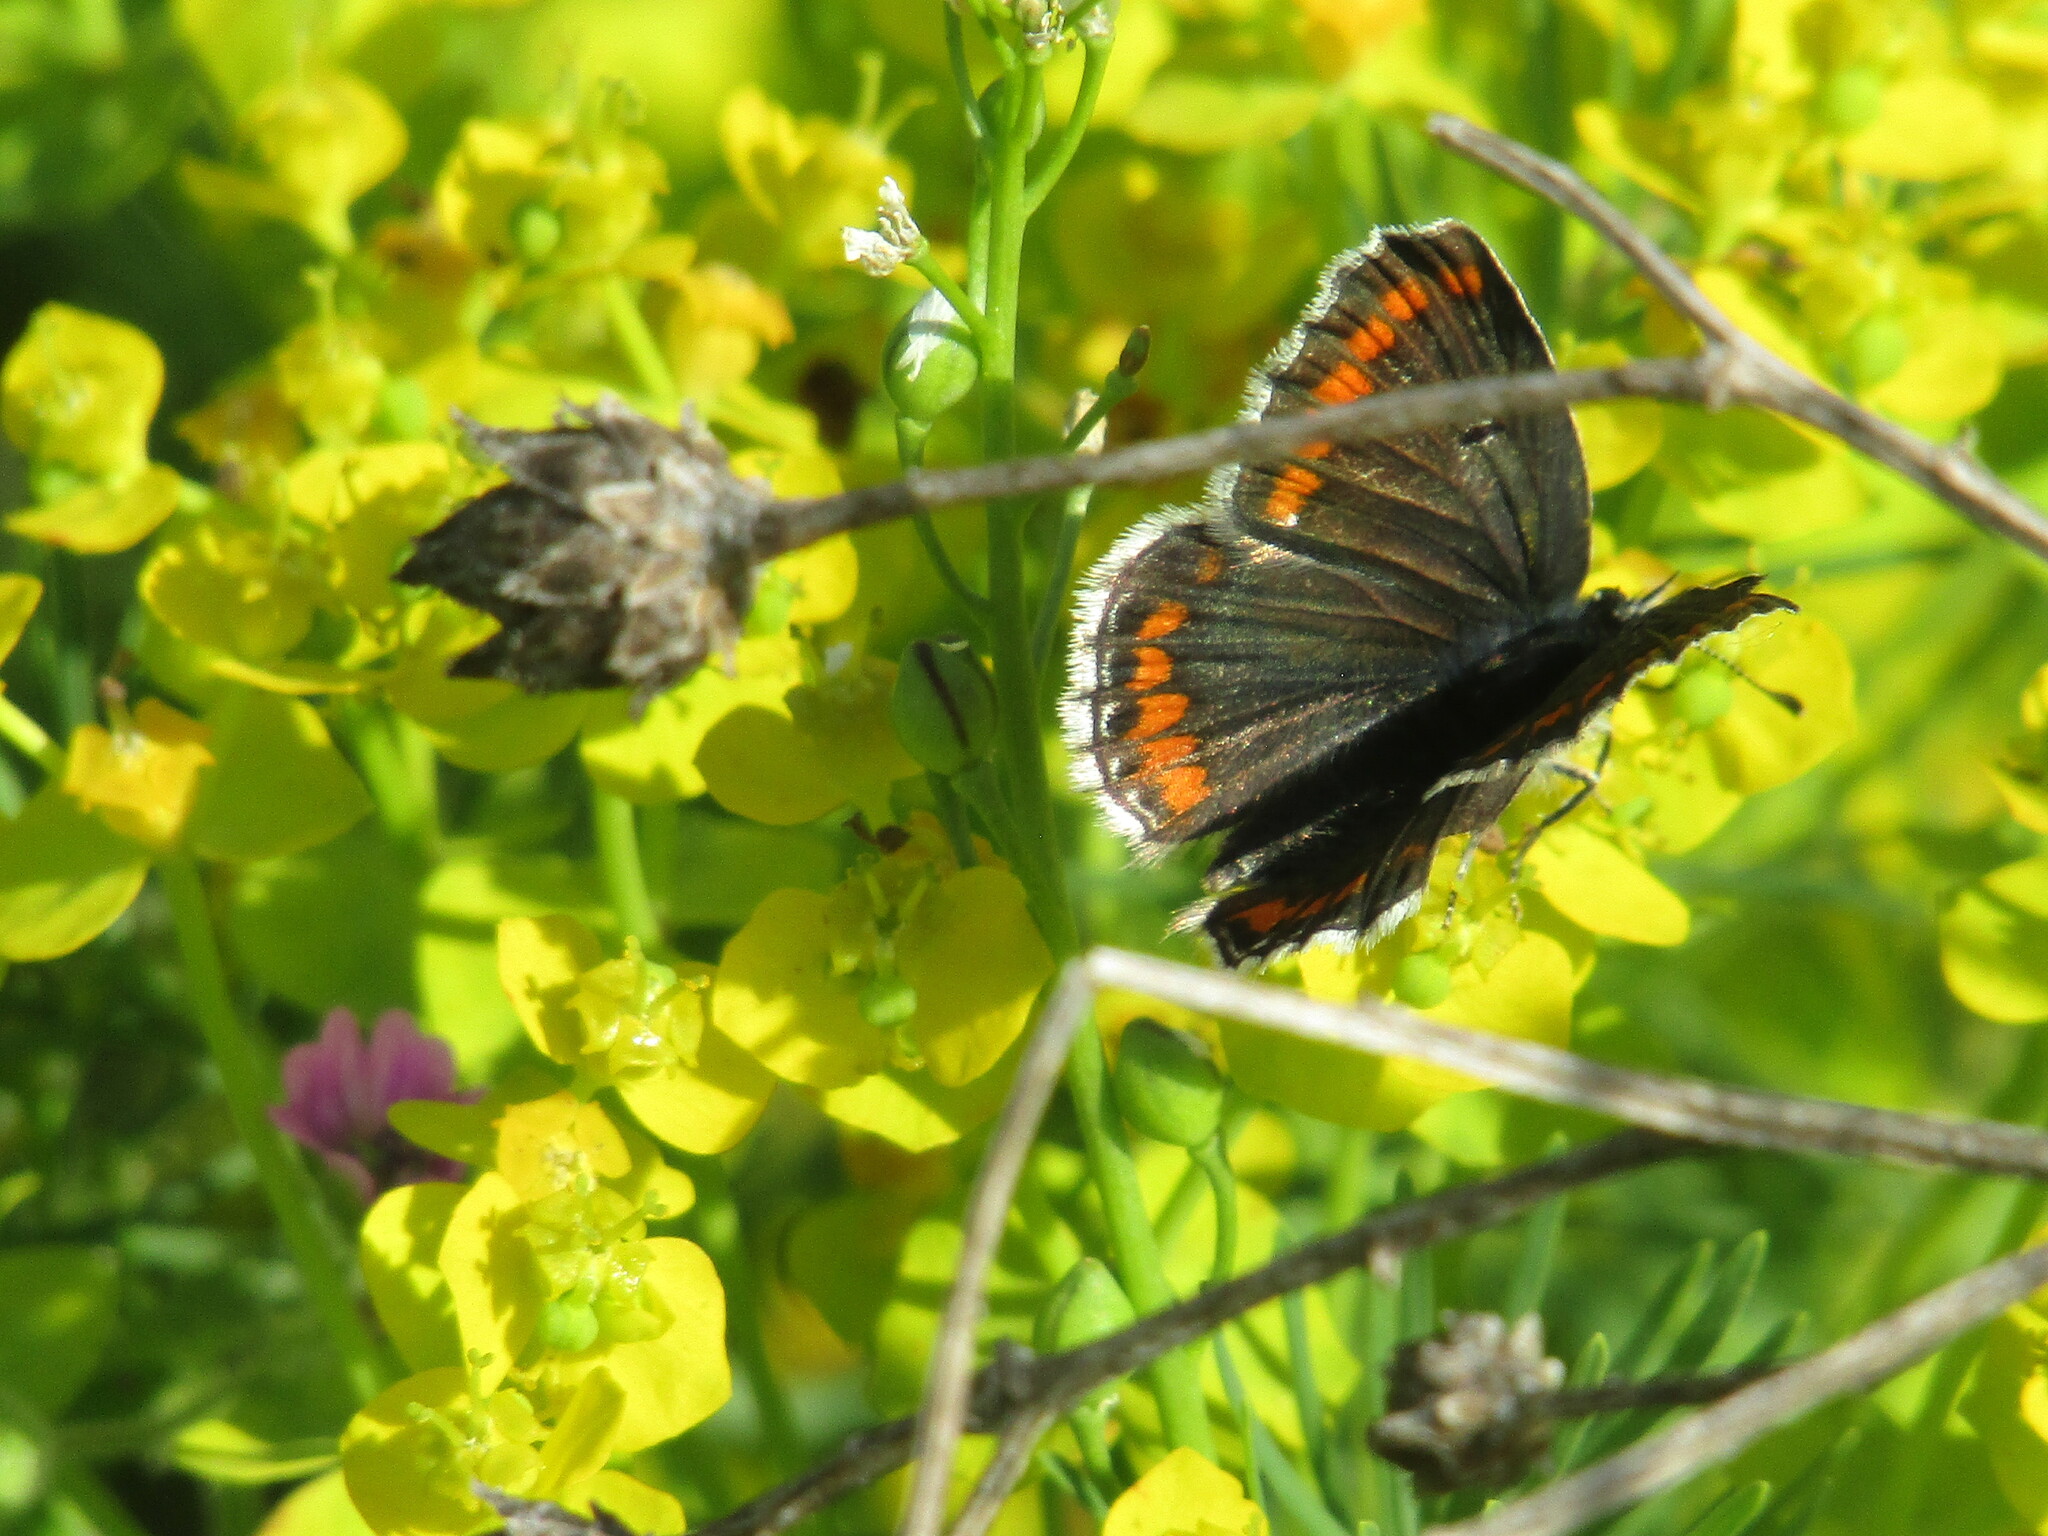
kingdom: Animalia
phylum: Arthropoda
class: Insecta
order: Lepidoptera
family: Lycaenidae
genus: Aricia
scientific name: Aricia agestis
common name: Brown argus
